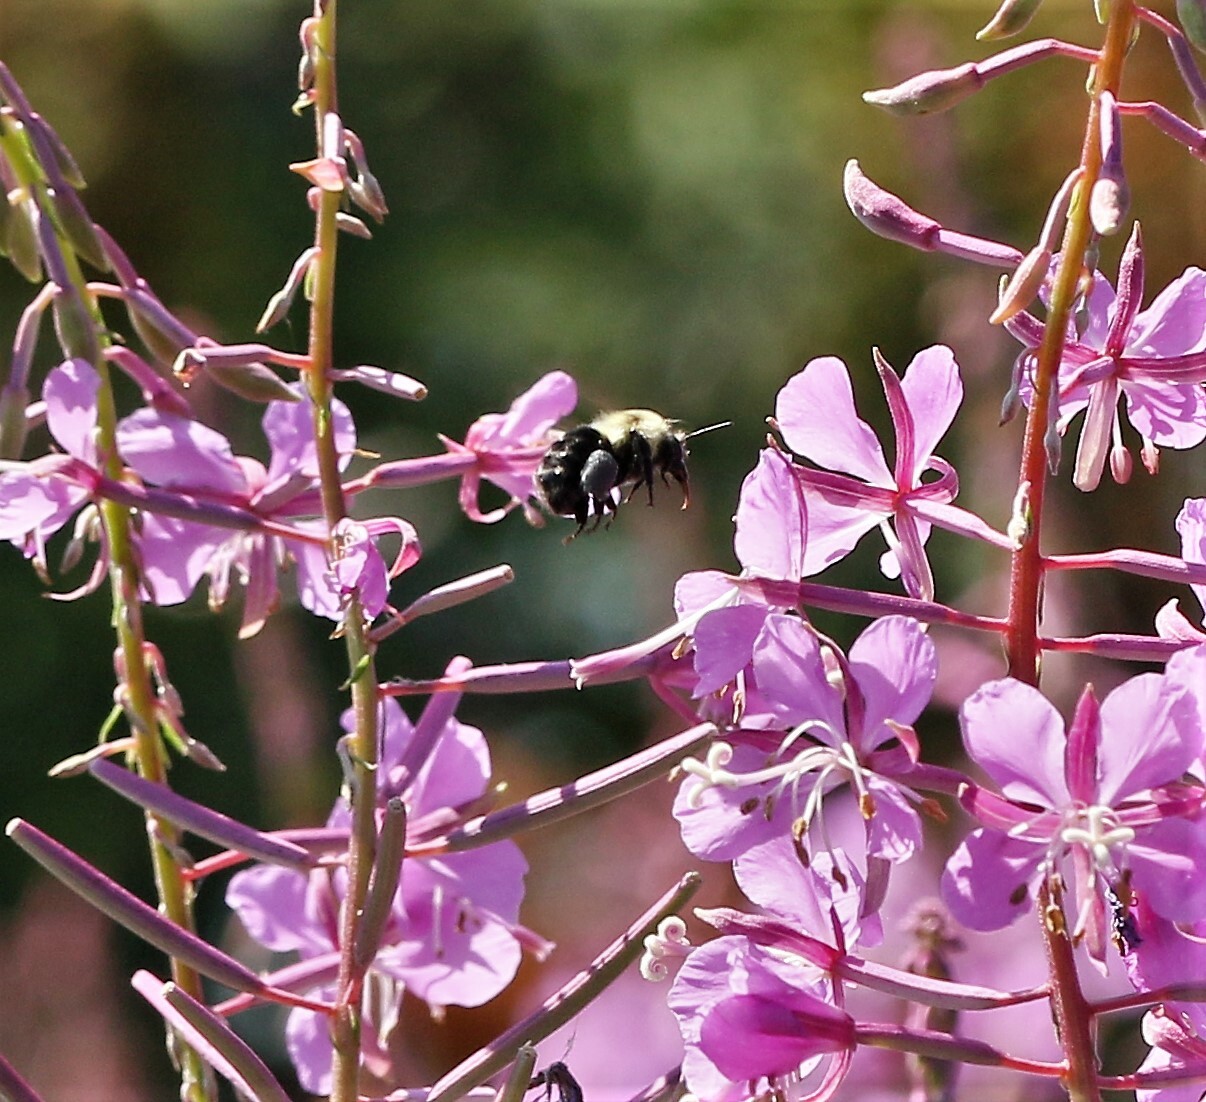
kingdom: Animalia
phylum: Arthropoda
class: Insecta
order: Hymenoptera
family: Apidae
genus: Bombus
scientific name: Bombus impatiens
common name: Common eastern bumble bee
